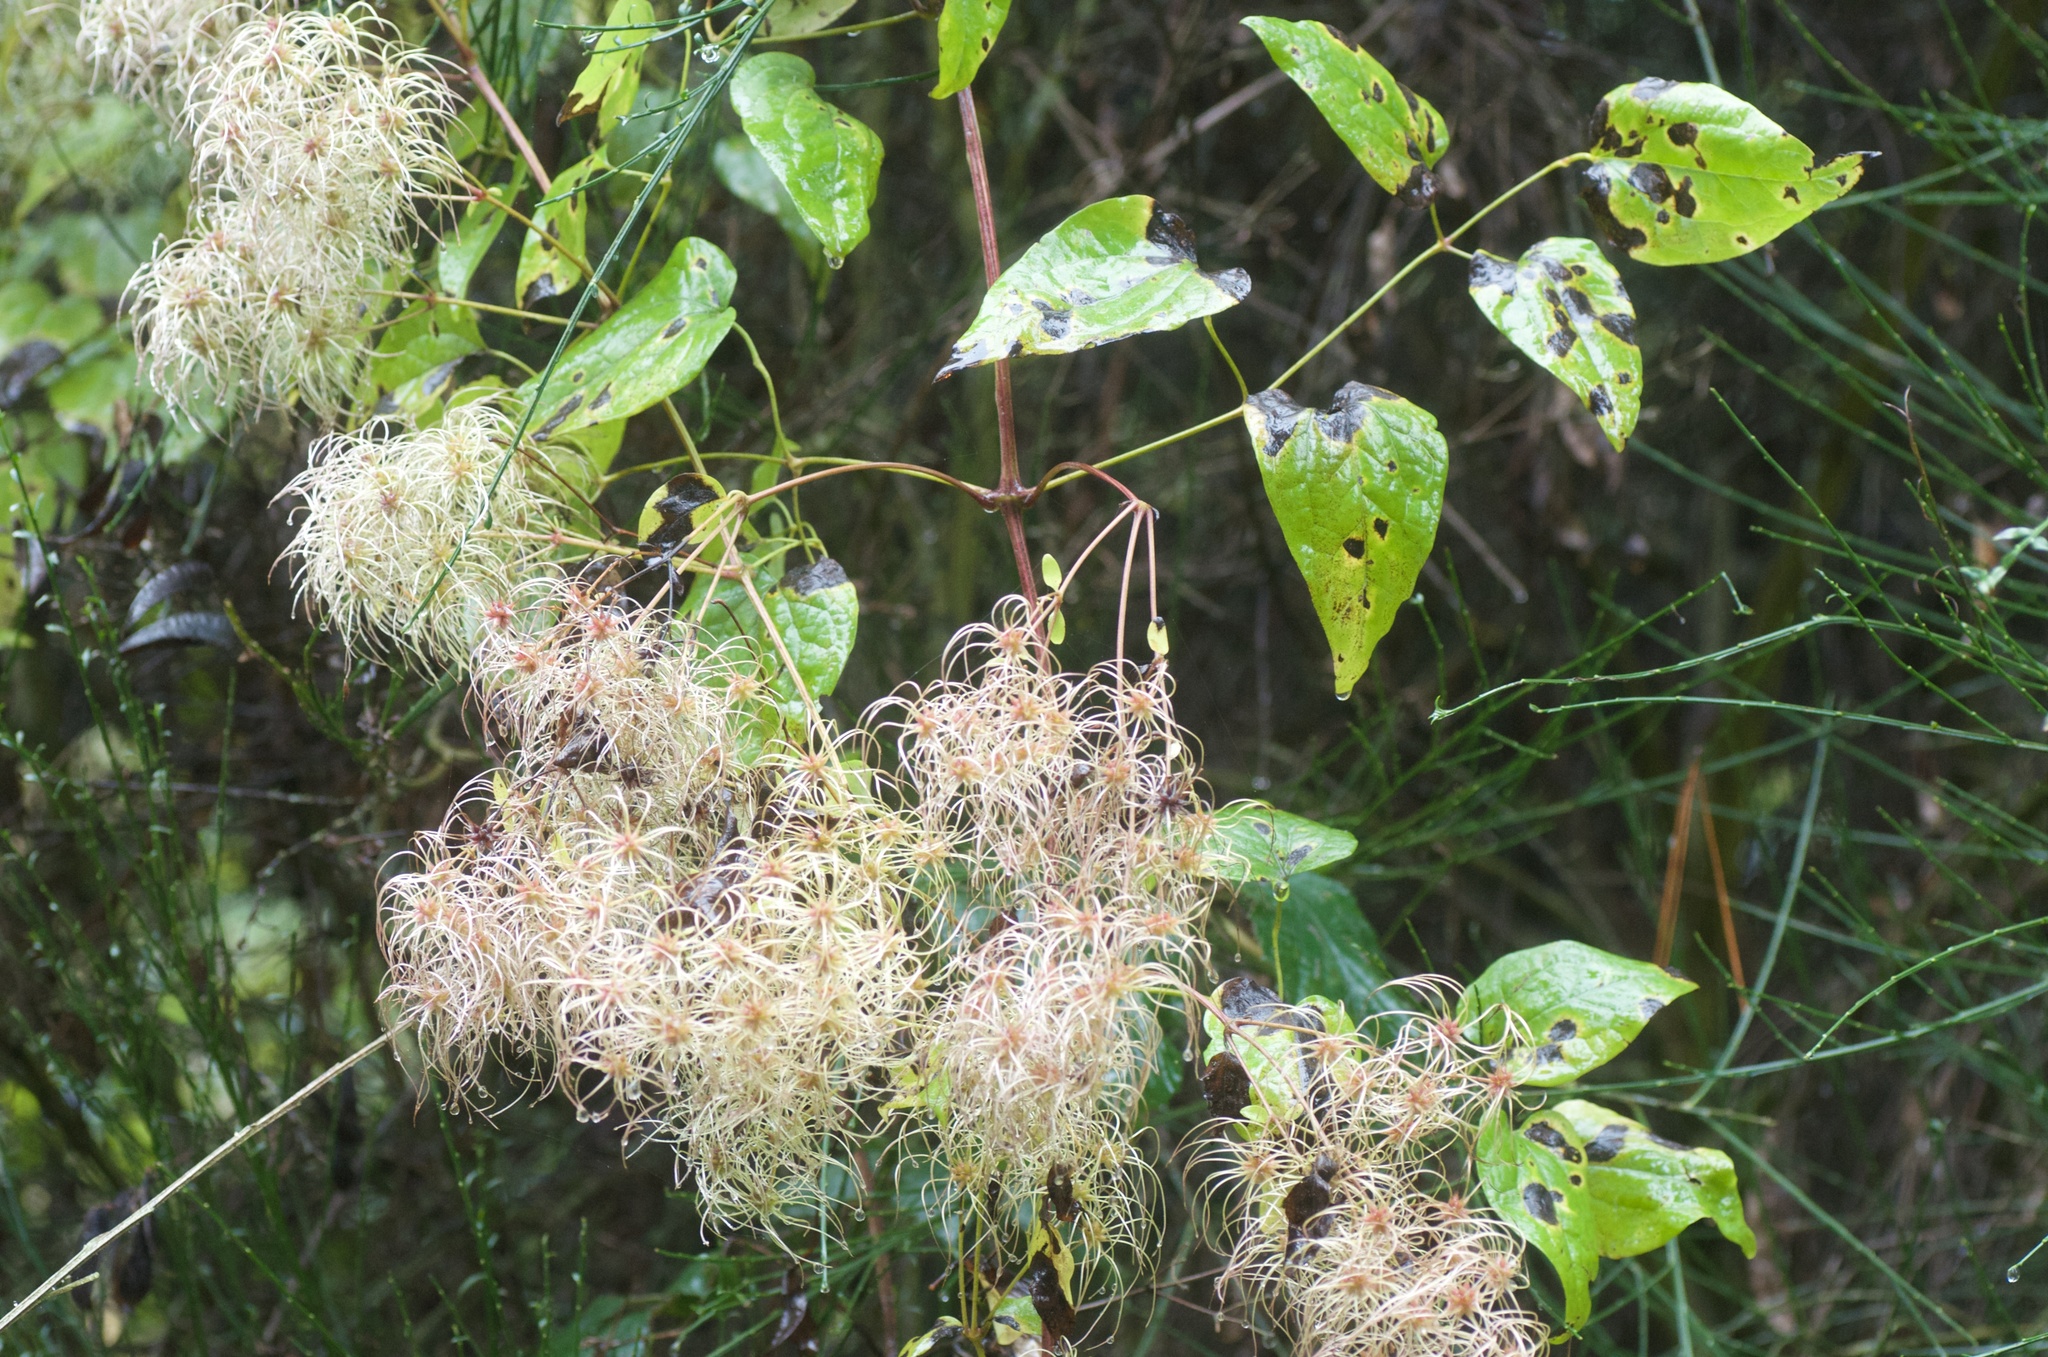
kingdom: Plantae
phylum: Tracheophyta
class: Magnoliopsida
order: Ranunculales
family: Ranunculaceae
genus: Clematis
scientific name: Clematis vitalba
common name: Evergreen clematis
